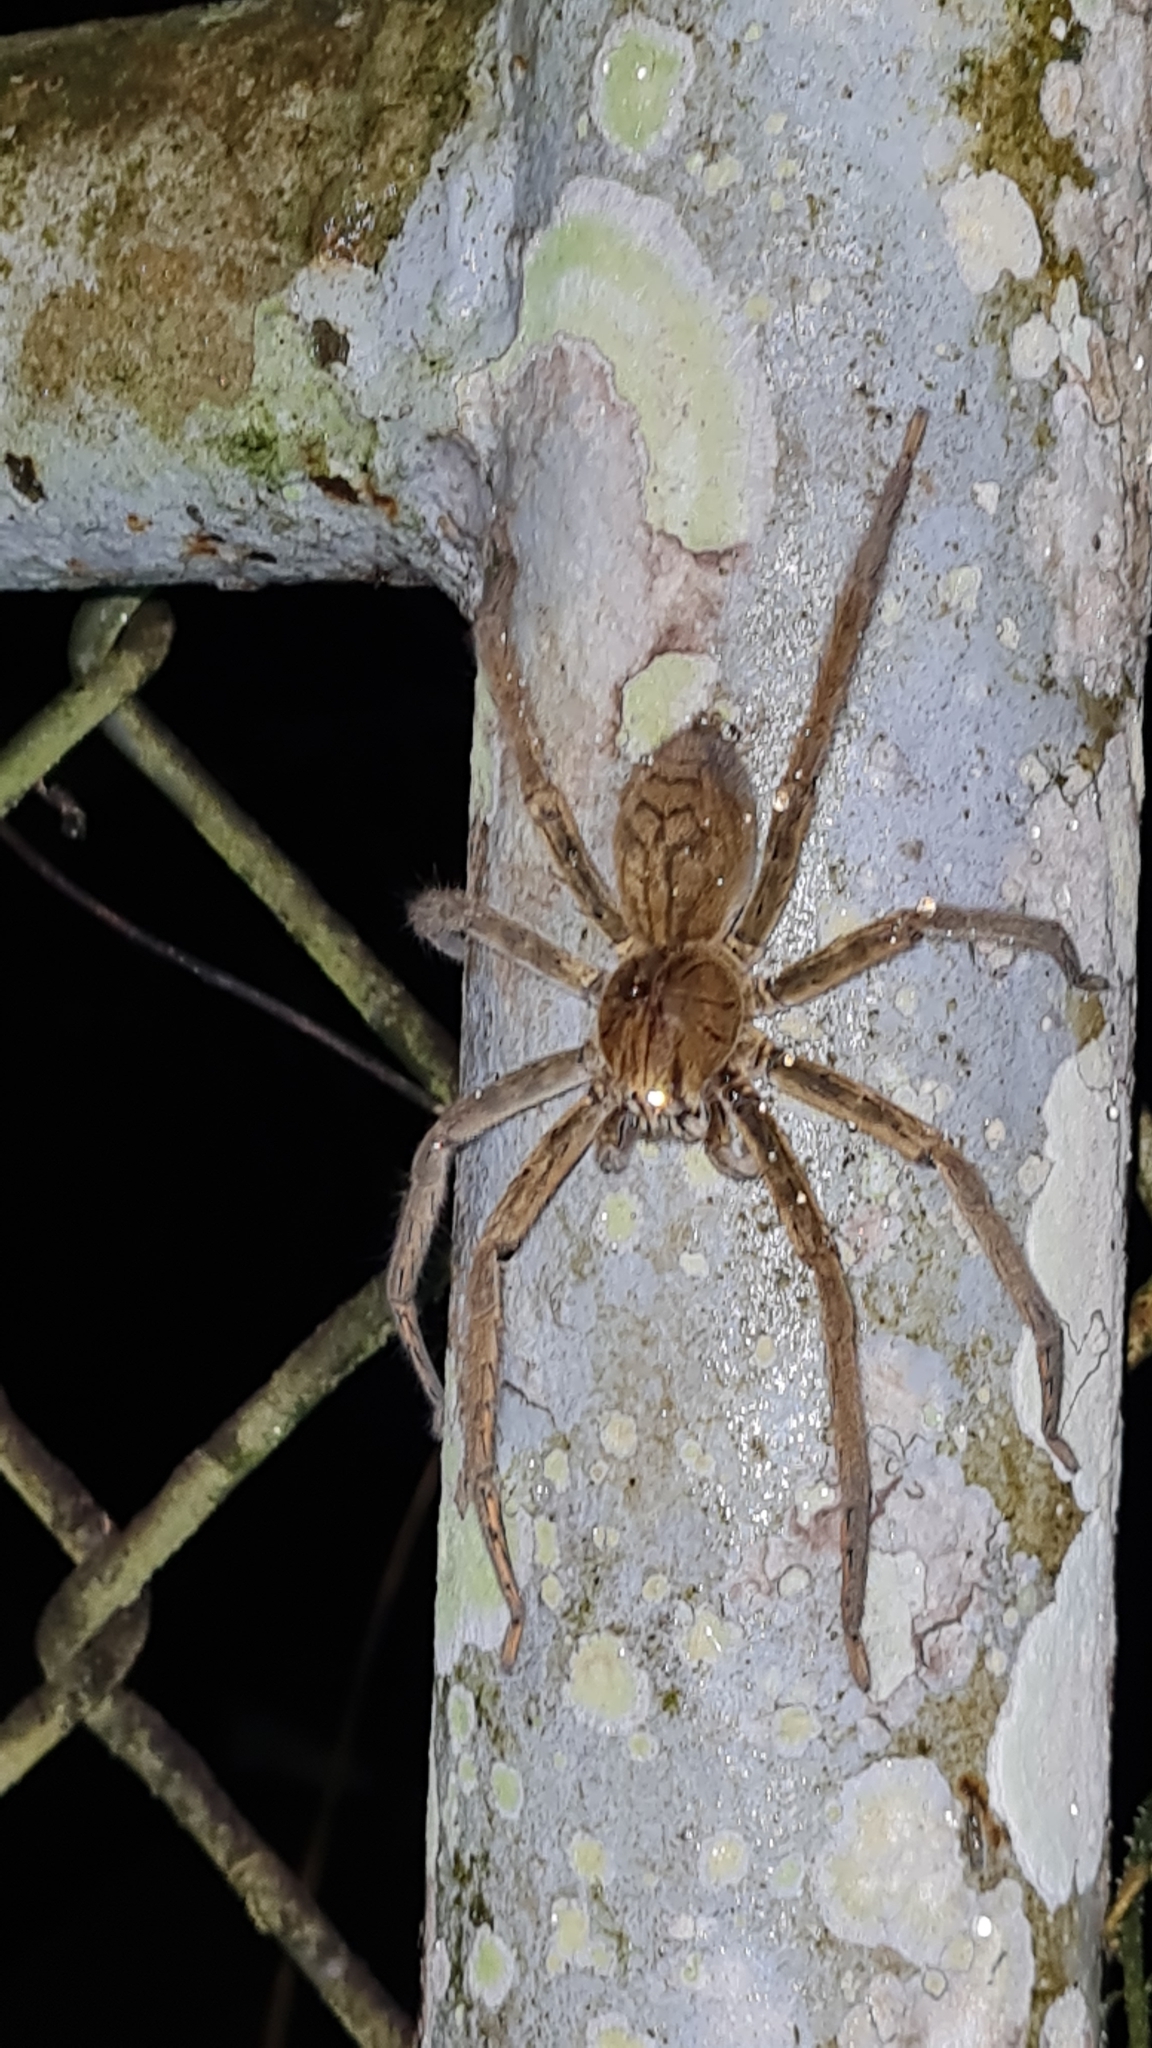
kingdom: Animalia
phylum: Arthropoda
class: Arachnida
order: Araneae
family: Trechaleidae
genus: Cupiennius
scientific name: Cupiennius coccineus
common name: Wandering spiders
